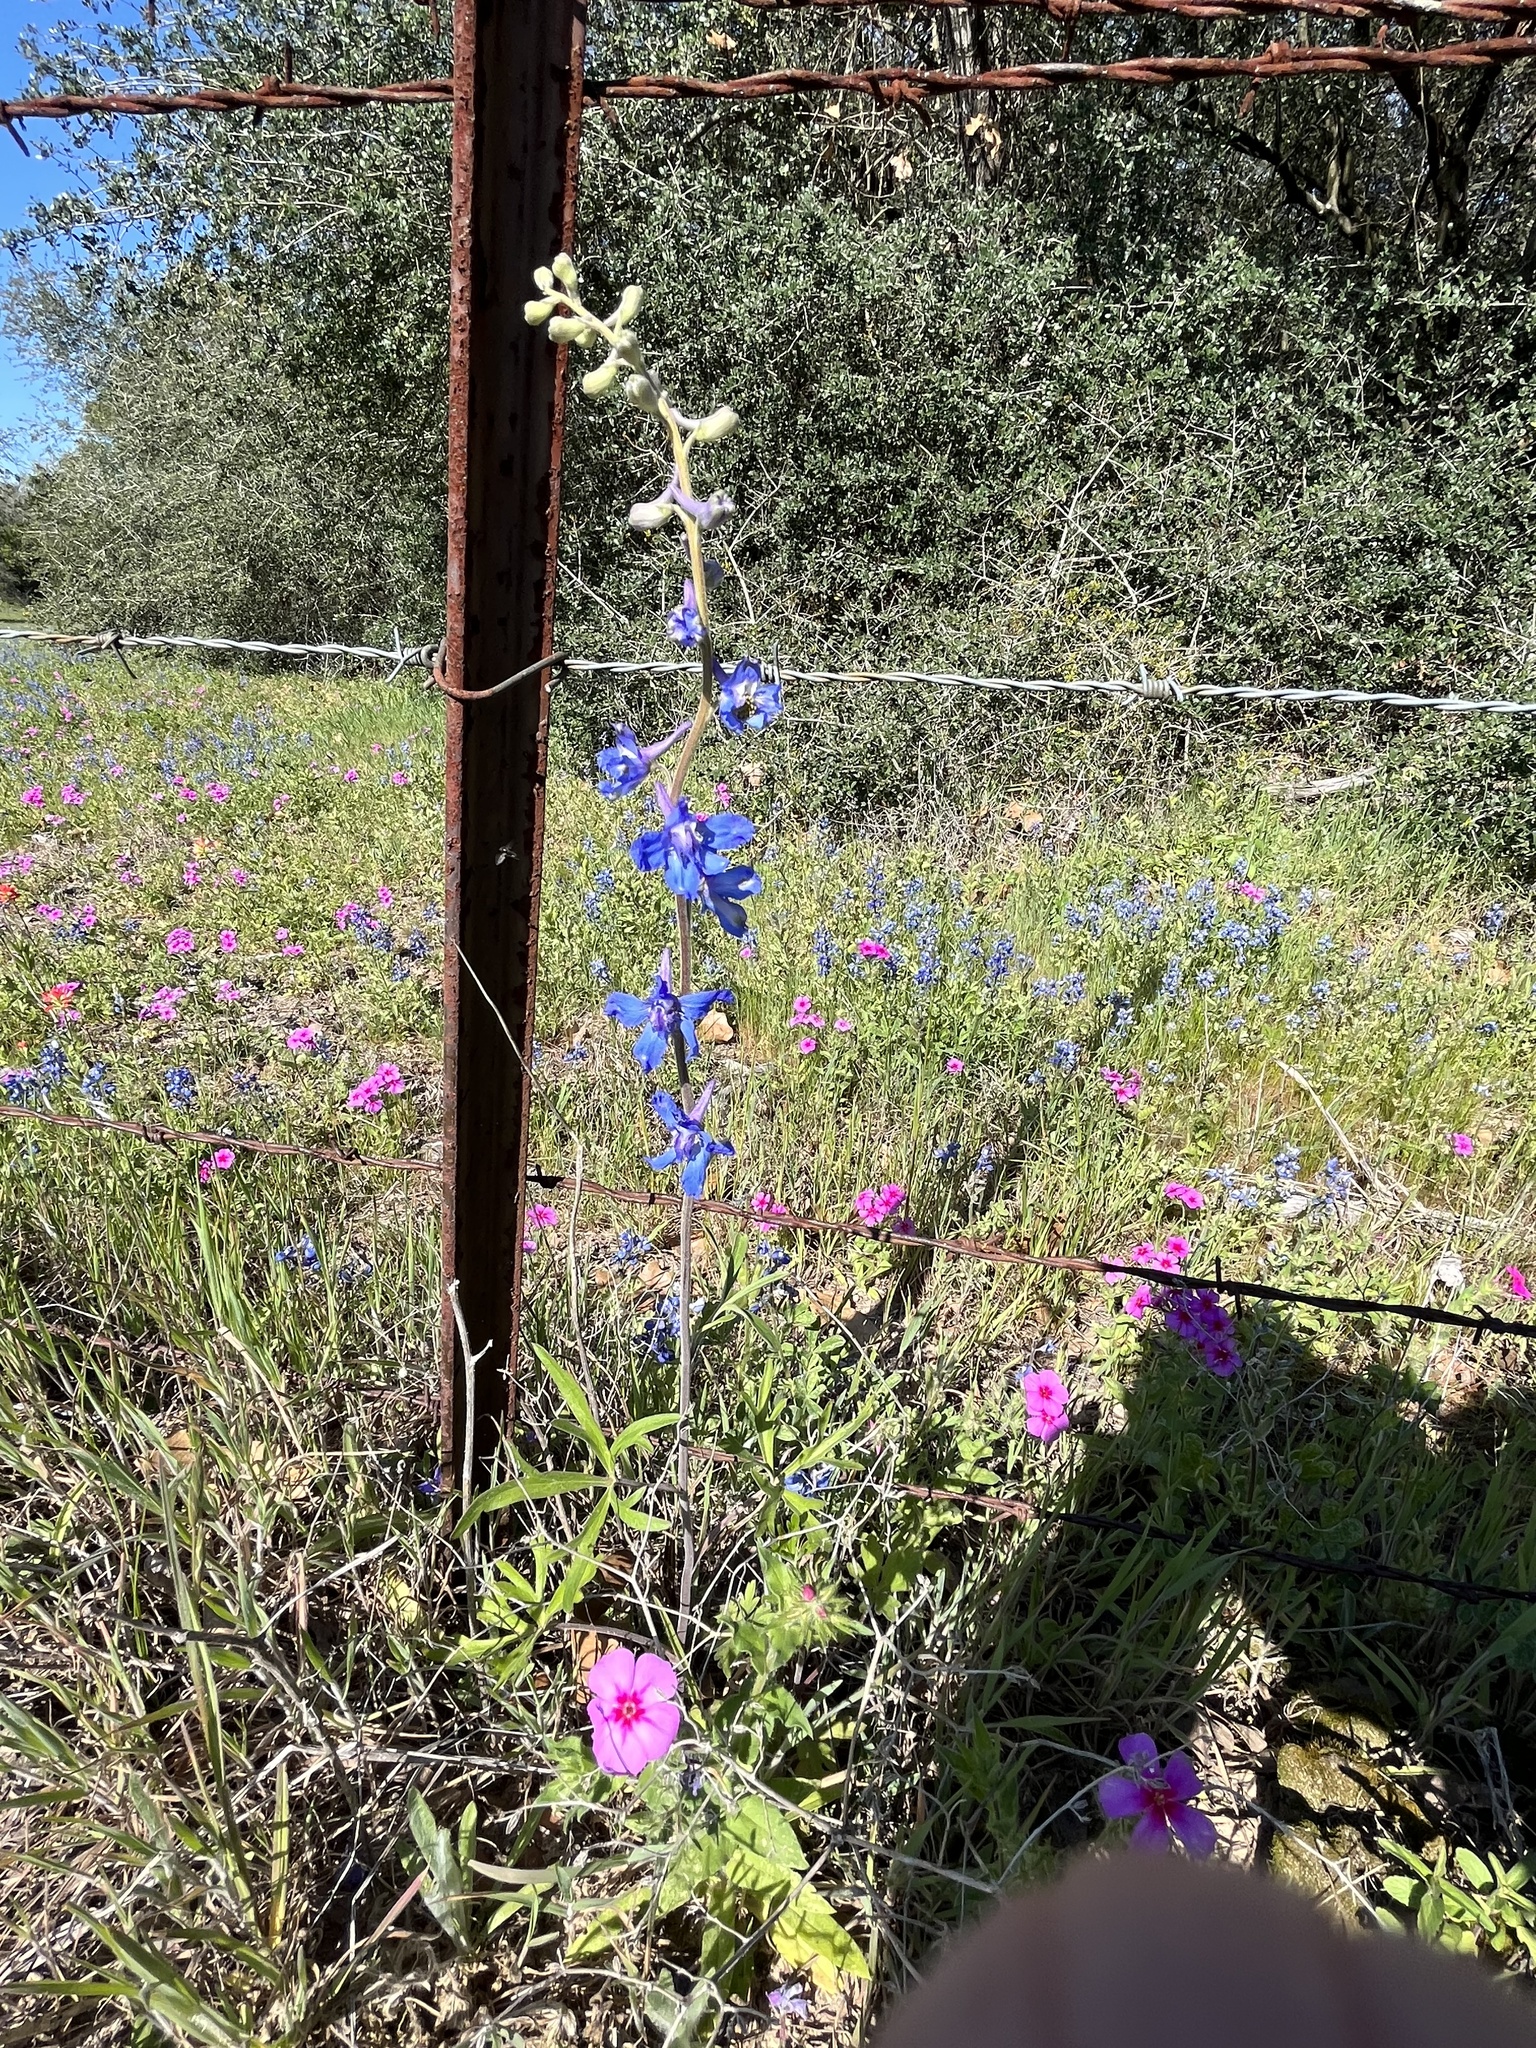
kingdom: Plantae
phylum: Tracheophyta
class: Magnoliopsida
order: Ranunculales
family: Ranunculaceae
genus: Delphinium
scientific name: Delphinium carolinianum
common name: Carolina larkspur
